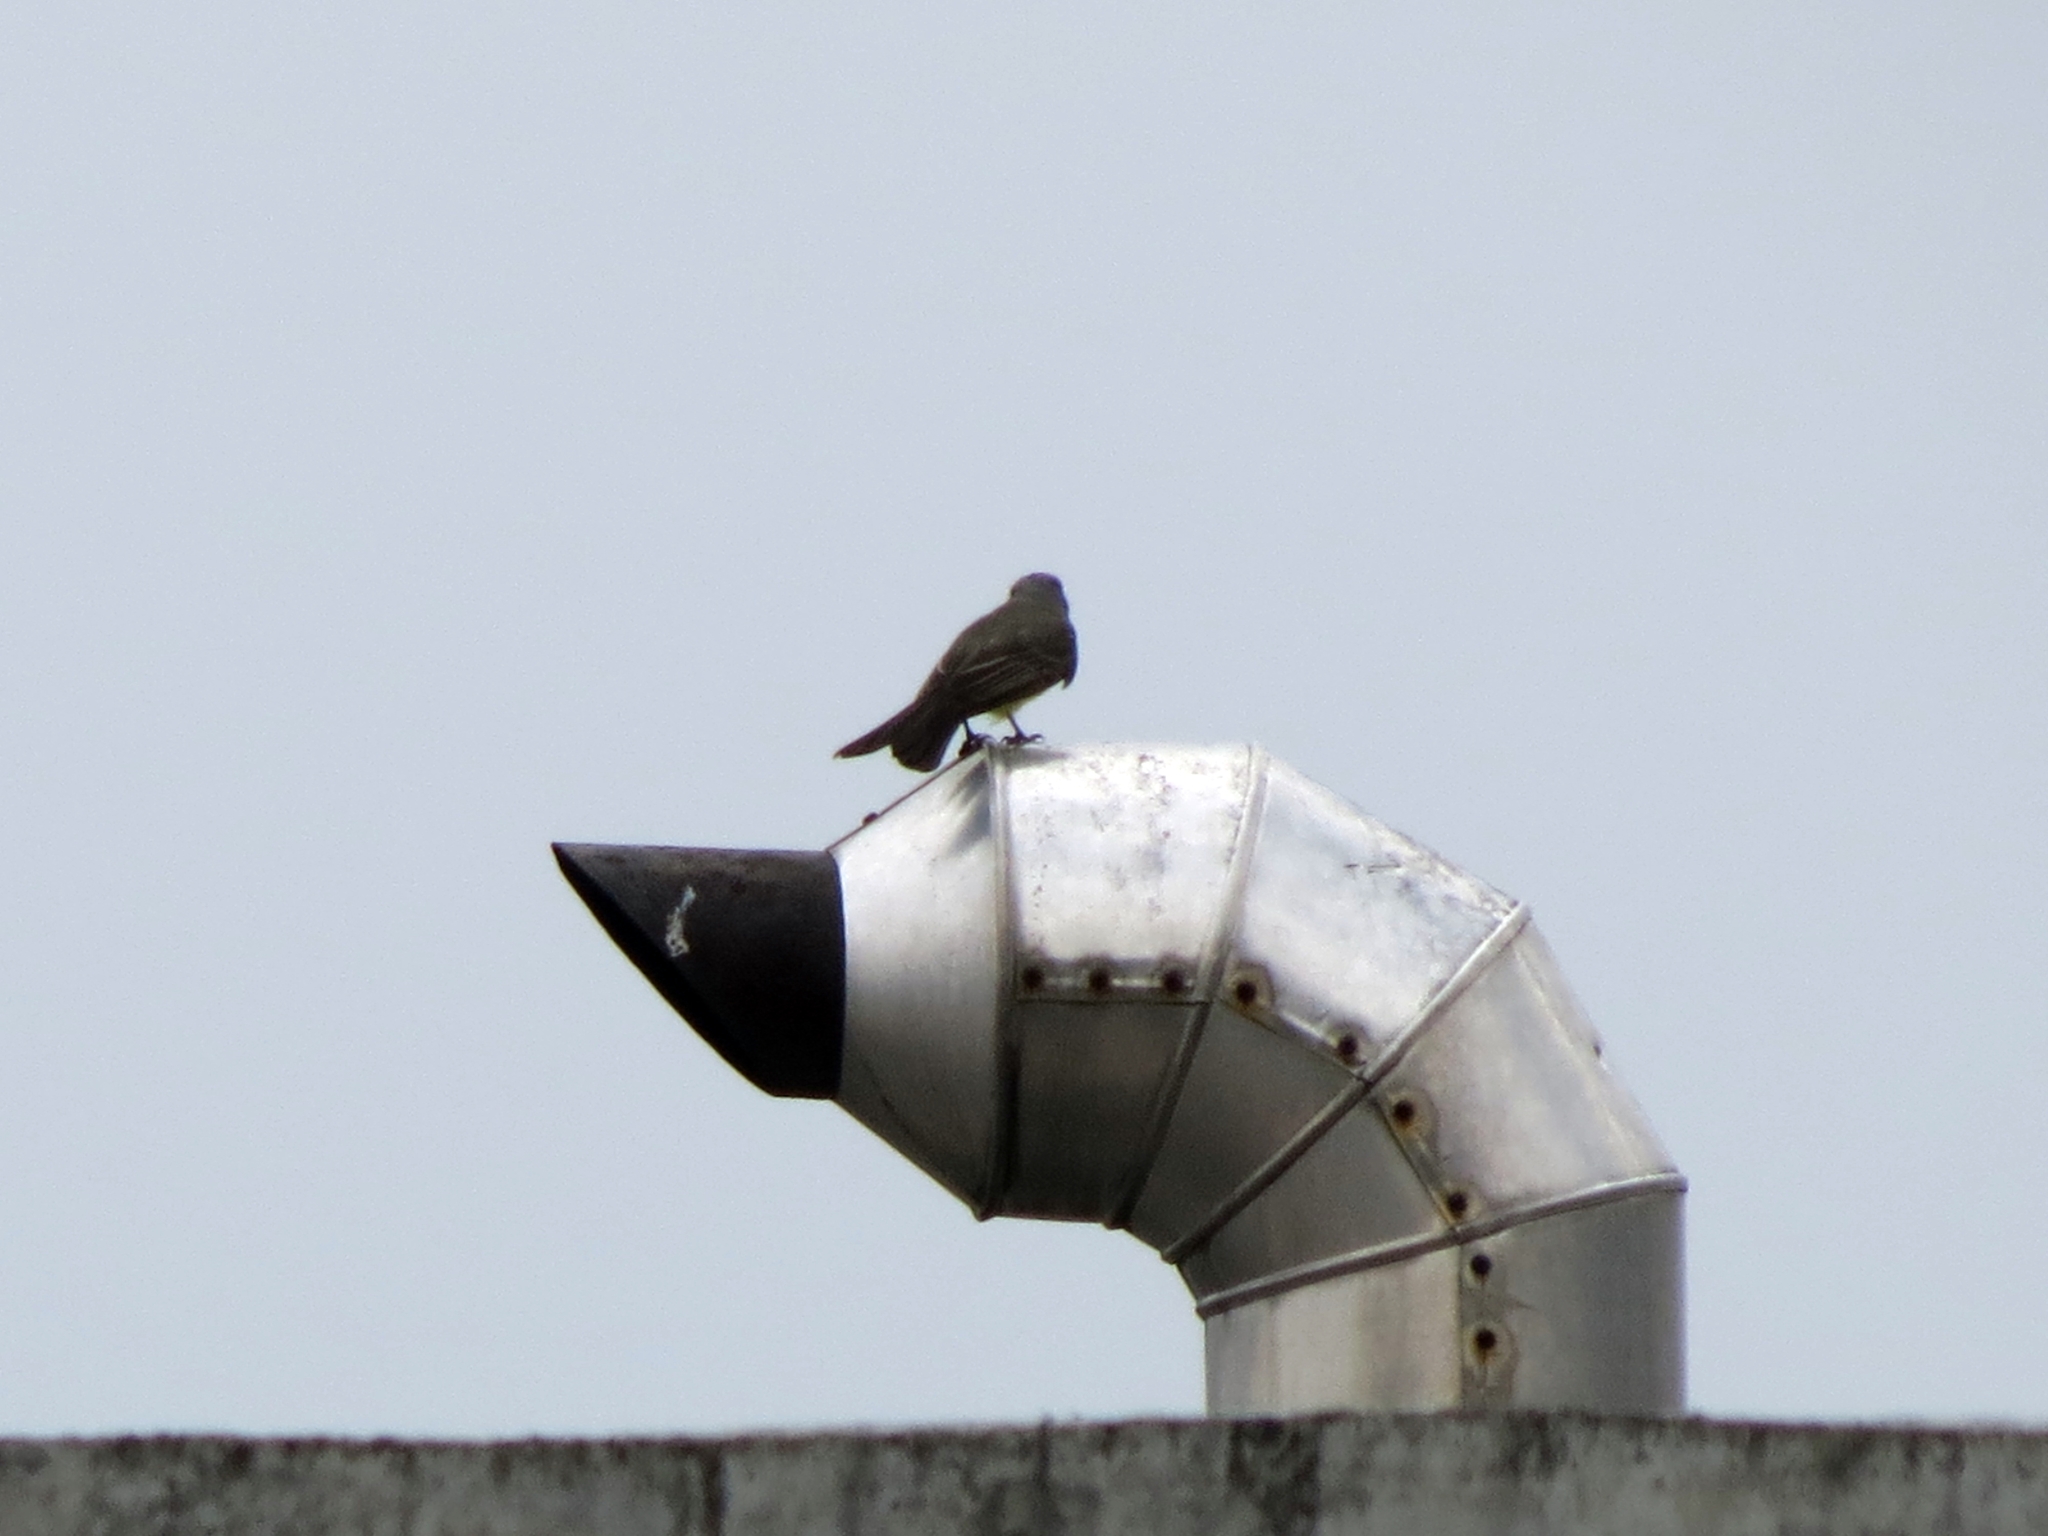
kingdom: Animalia
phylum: Chordata
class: Aves
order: Passeriformes
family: Tyrannidae
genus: Tyrannus
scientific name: Tyrannus melancholicus
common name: Tropical kingbird
